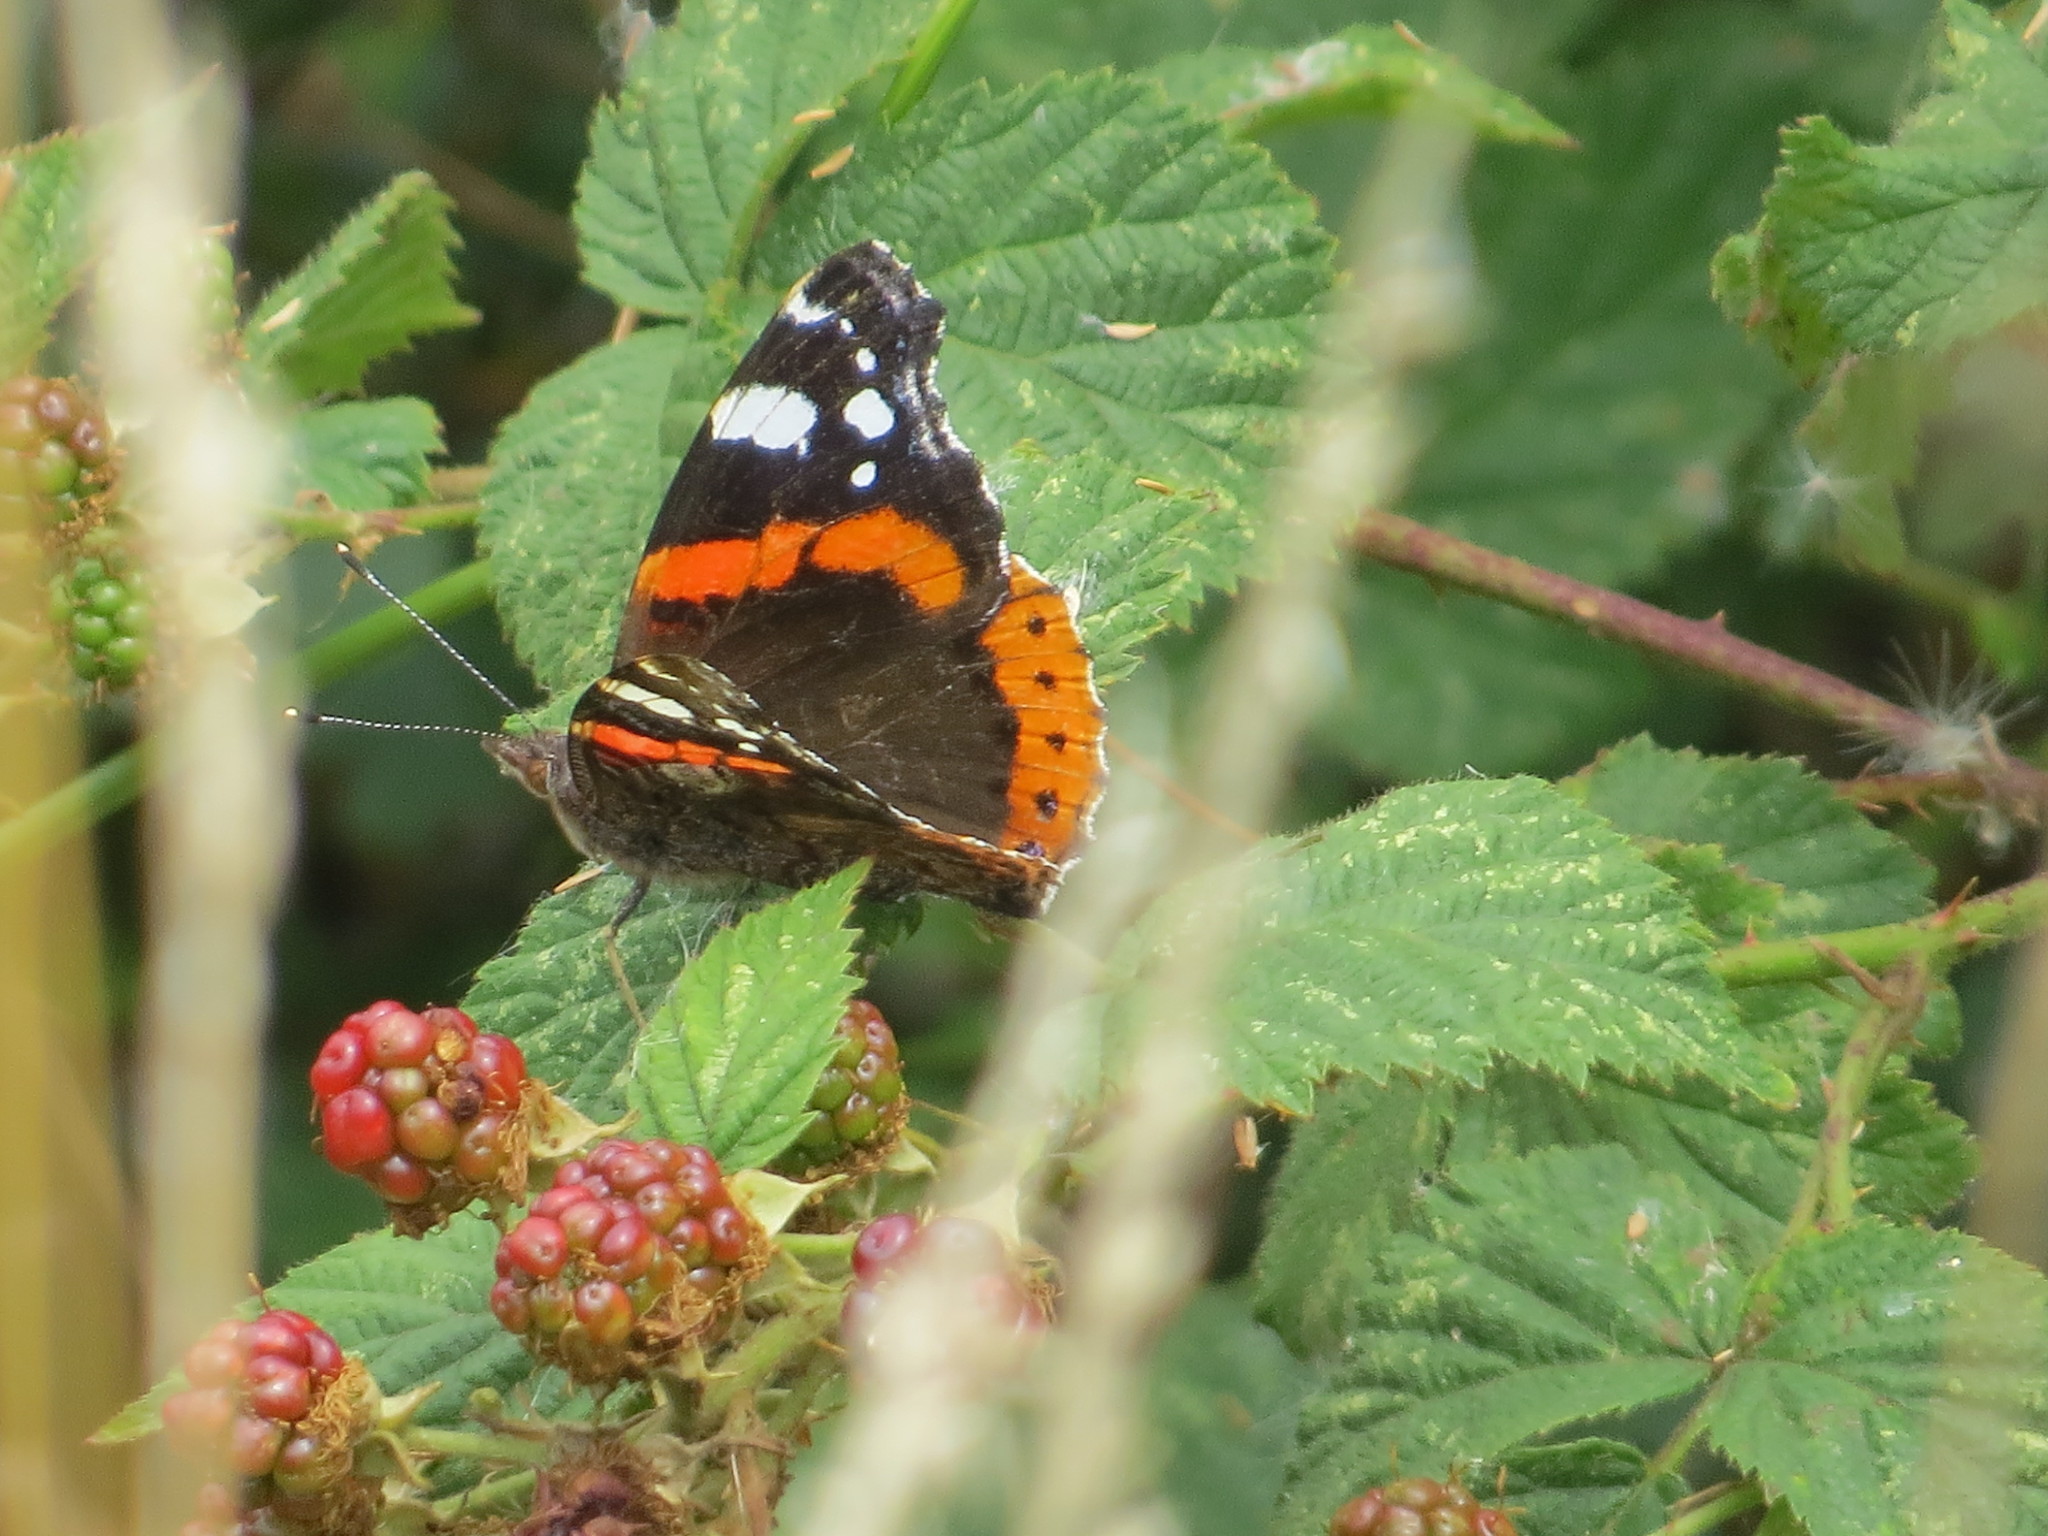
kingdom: Animalia
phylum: Arthropoda
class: Insecta
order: Lepidoptera
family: Nymphalidae
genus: Vanessa
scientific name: Vanessa atalanta
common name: Red admiral
